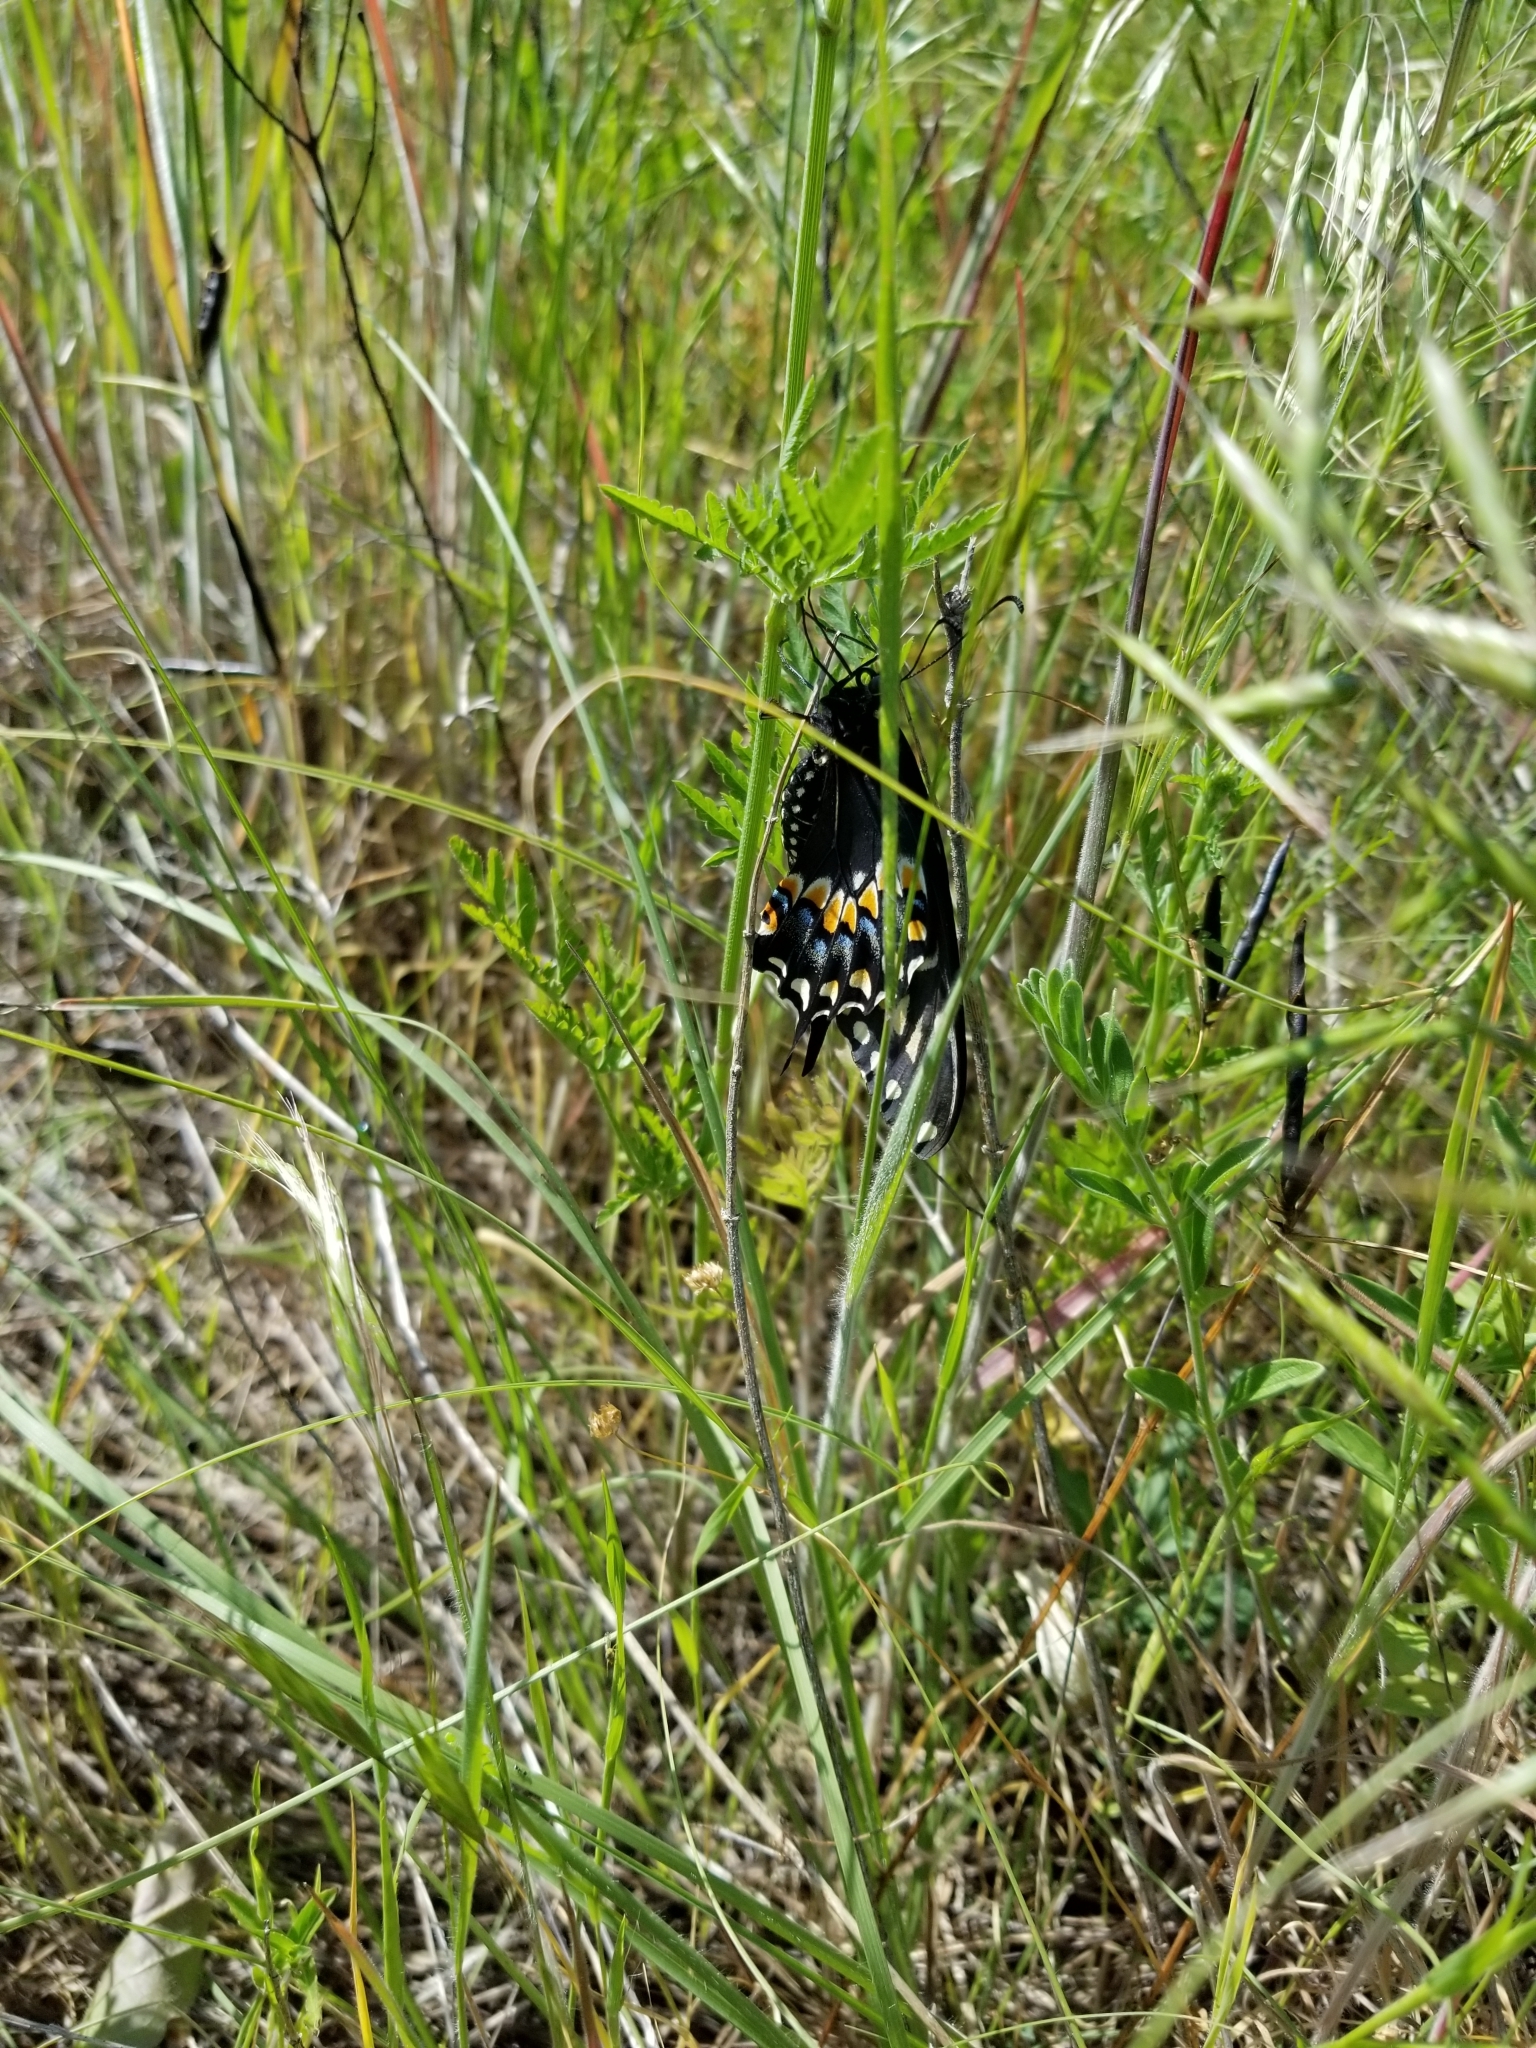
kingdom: Animalia
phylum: Arthropoda
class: Insecta
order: Lepidoptera
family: Papilionidae
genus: Papilio
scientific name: Papilio polyxenes
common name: Black swallowtail
